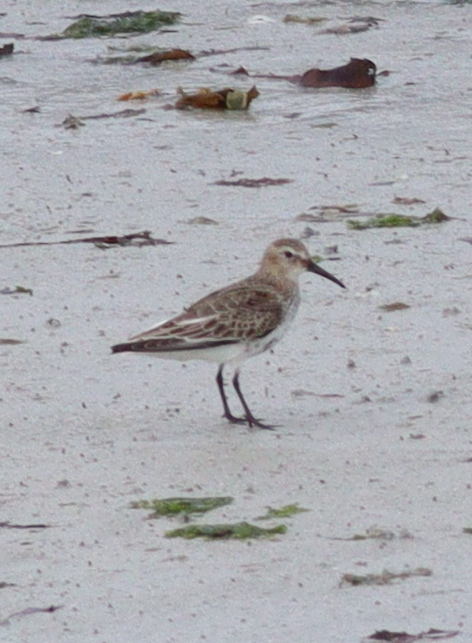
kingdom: Animalia
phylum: Chordata
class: Aves
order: Charadriiformes
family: Scolopacidae
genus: Calidris
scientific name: Calidris alpina
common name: Dunlin
